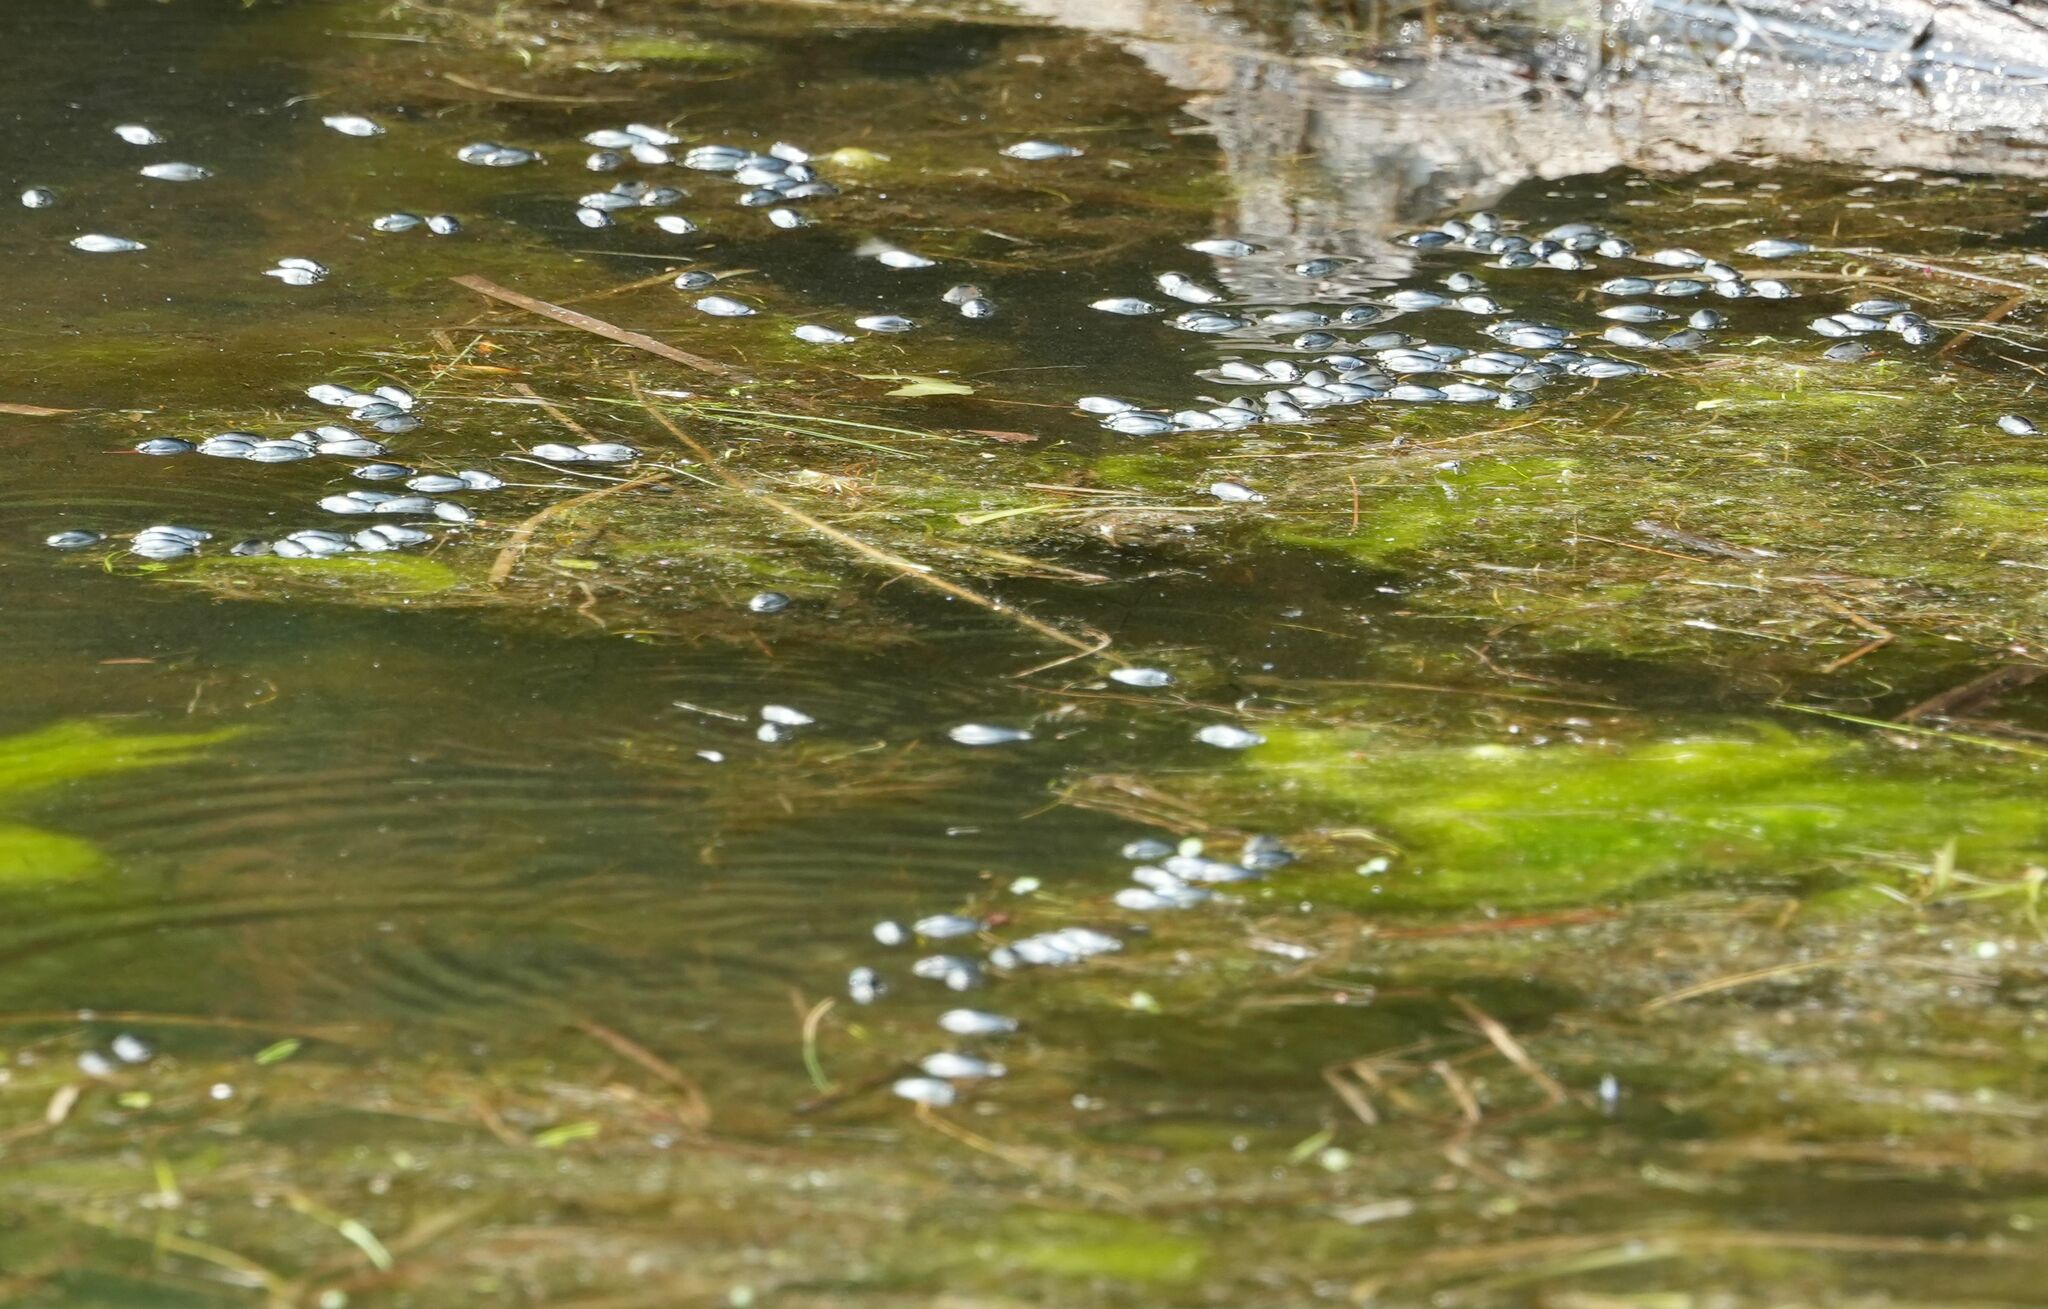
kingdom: Animalia
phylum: Arthropoda
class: Insecta
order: Coleoptera
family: Gyrinidae
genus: Dineutus
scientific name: Dineutus
